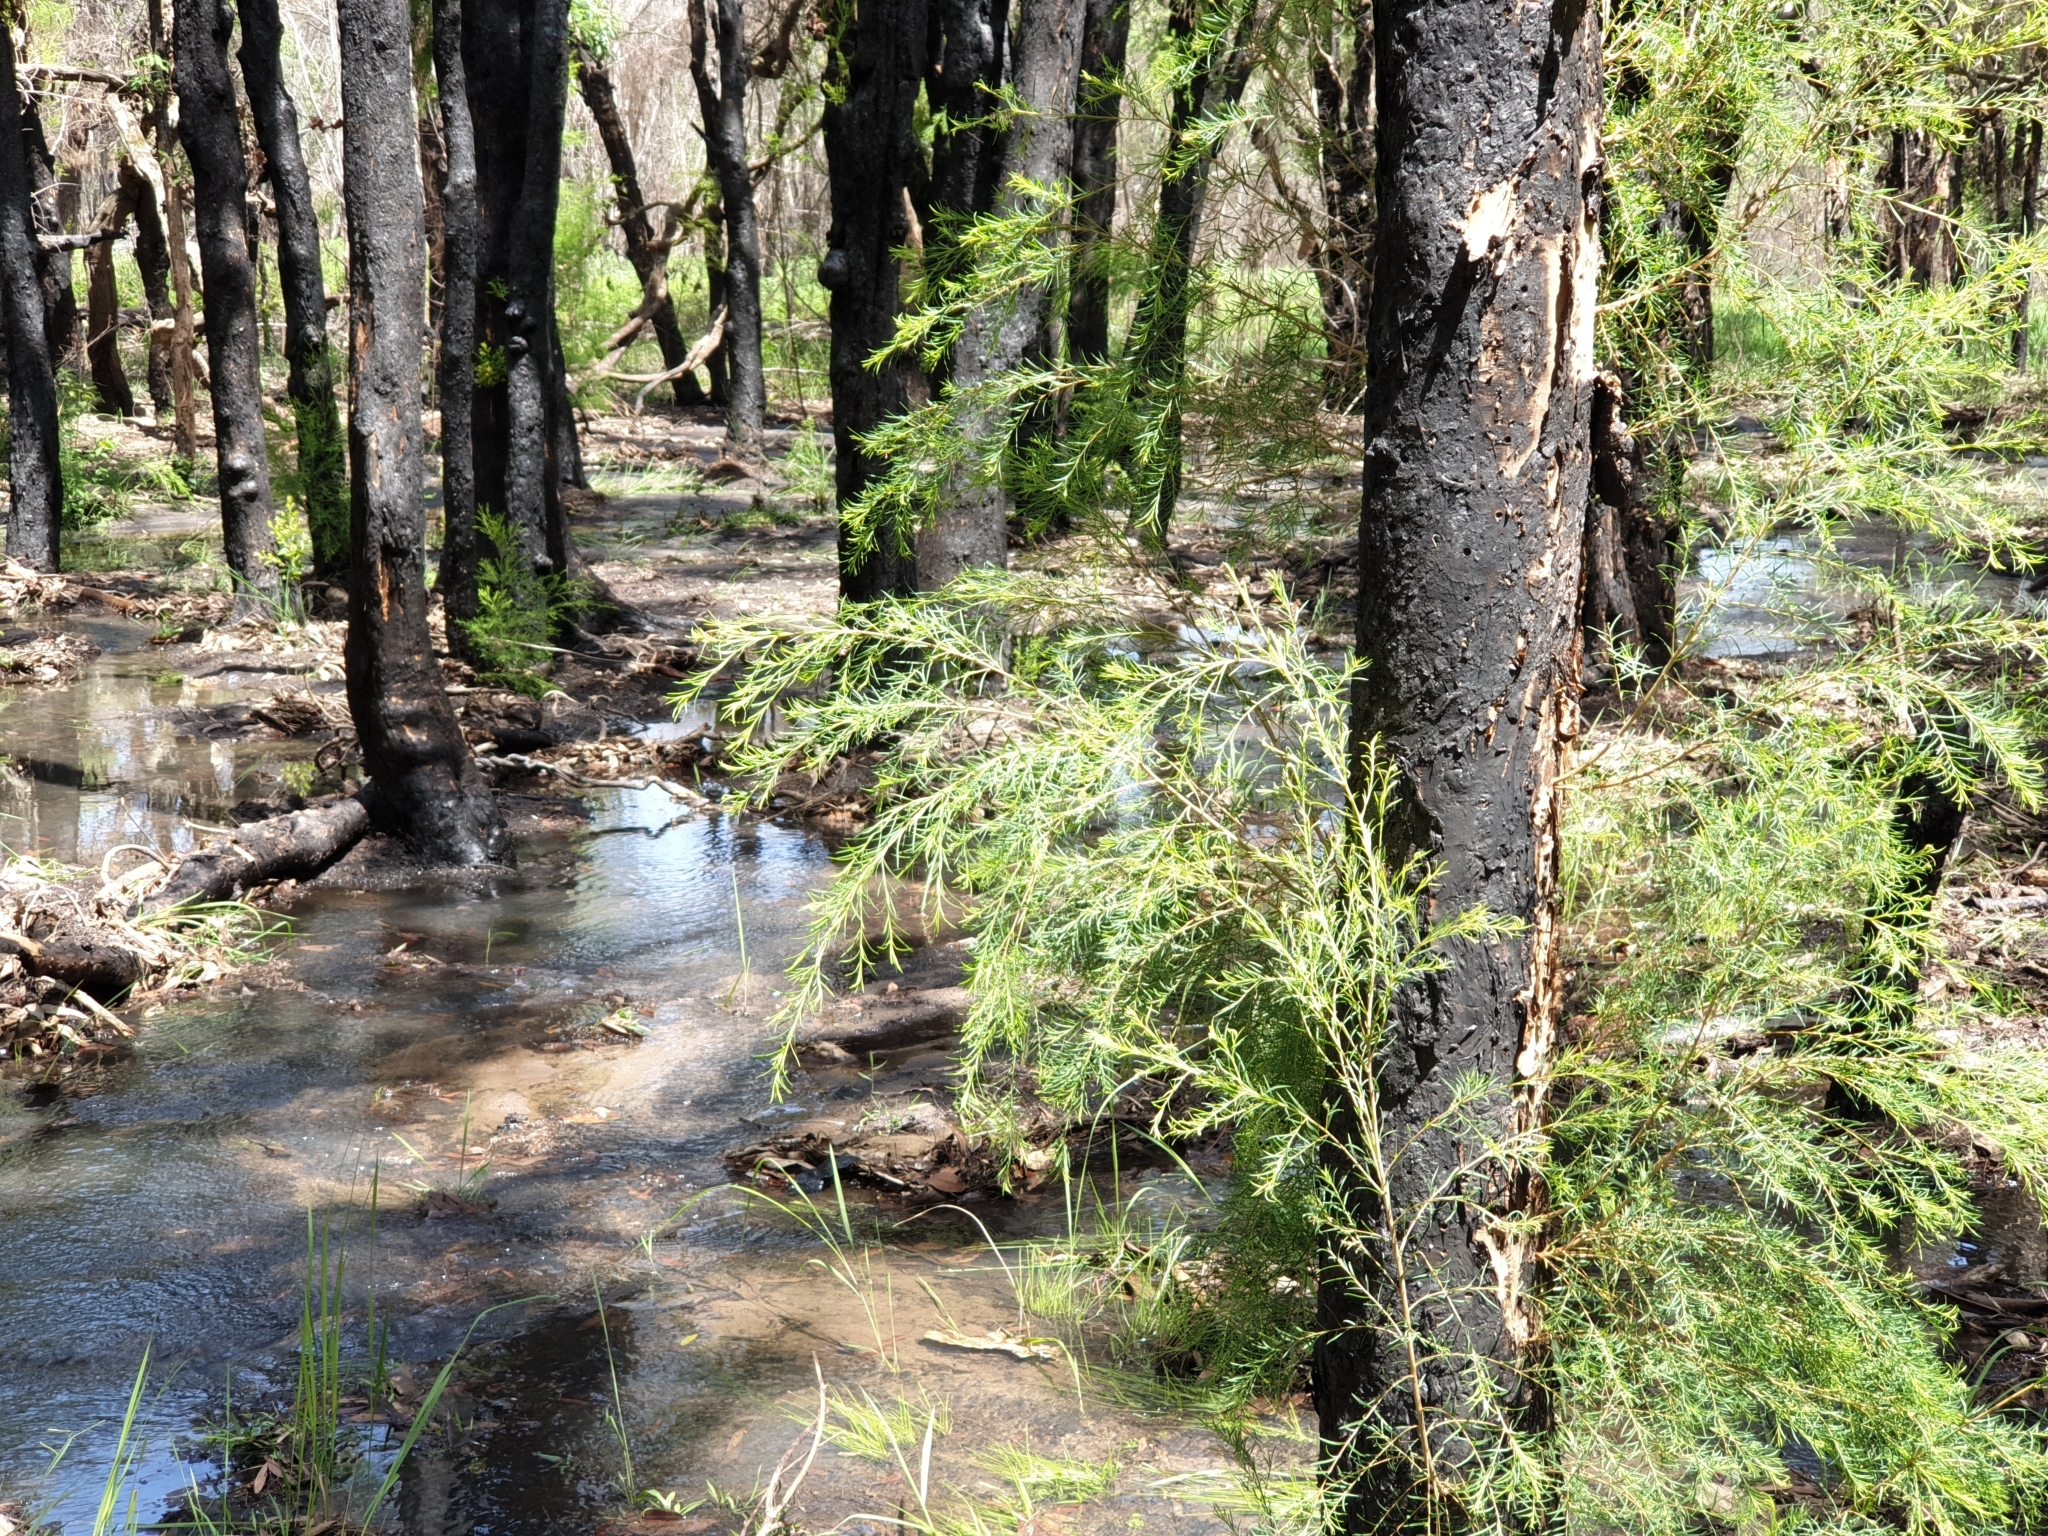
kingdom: Plantae
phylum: Tracheophyta
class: Magnoliopsida
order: Myrtales
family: Myrtaceae
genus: Melaleuca
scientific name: Melaleuca linariifolia
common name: Cajeput tree
